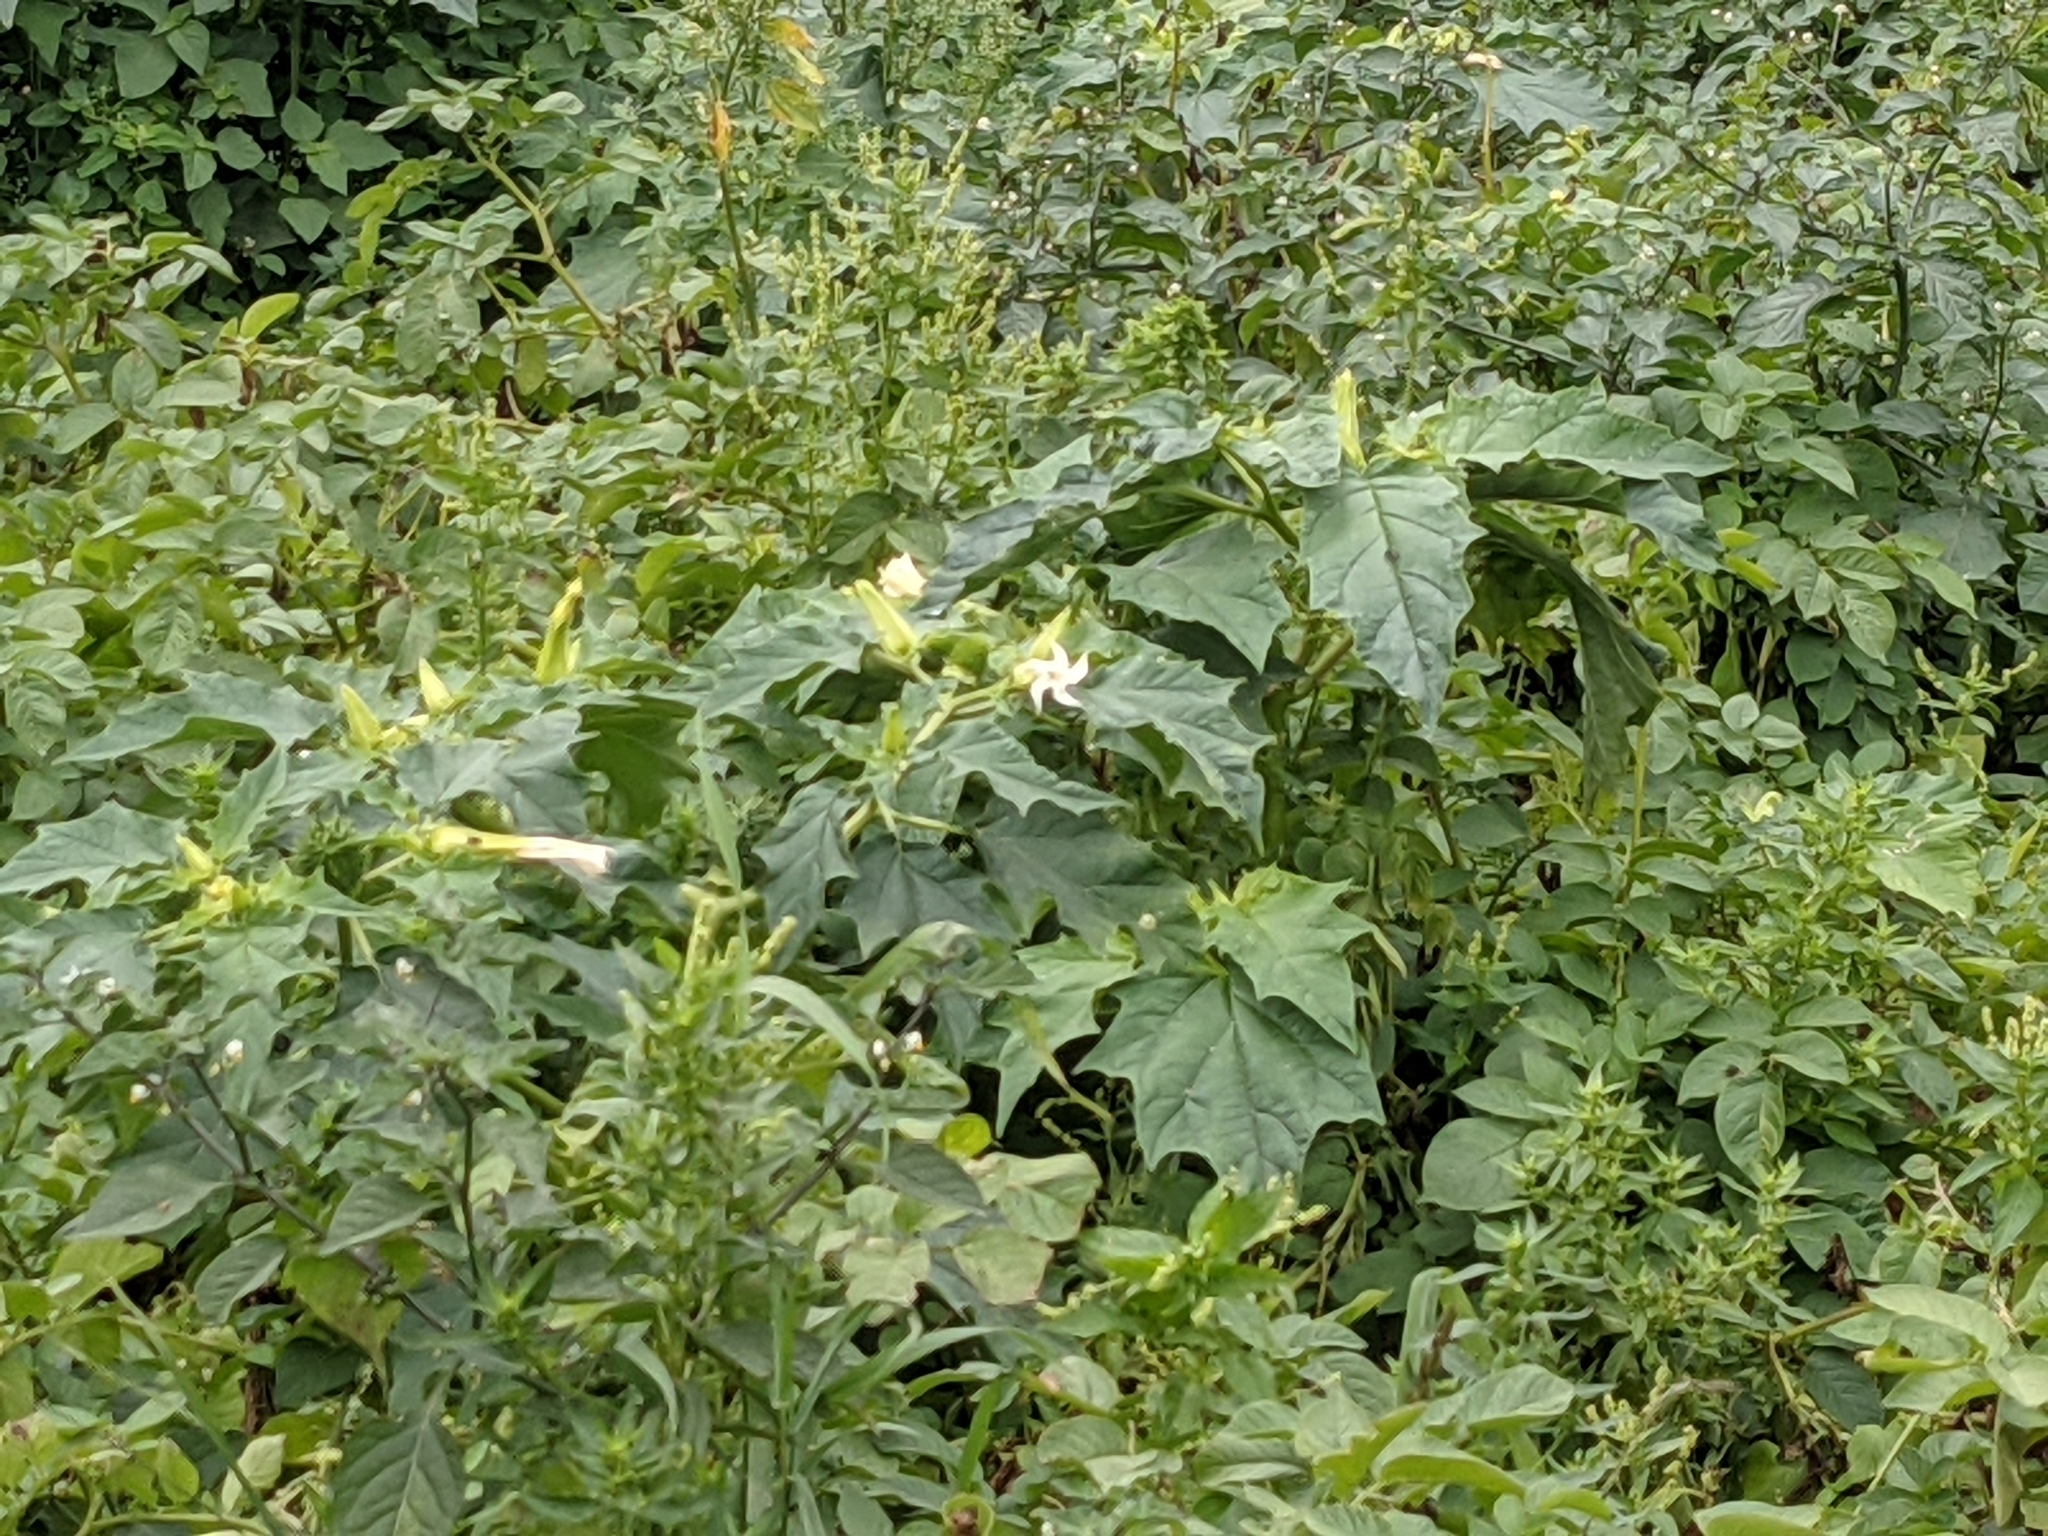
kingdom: Plantae
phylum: Tracheophyta
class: Magnoliopsida
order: Solanales
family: Solanaceae
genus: Datura
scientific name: Datura stramonium
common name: Thorn-apple
